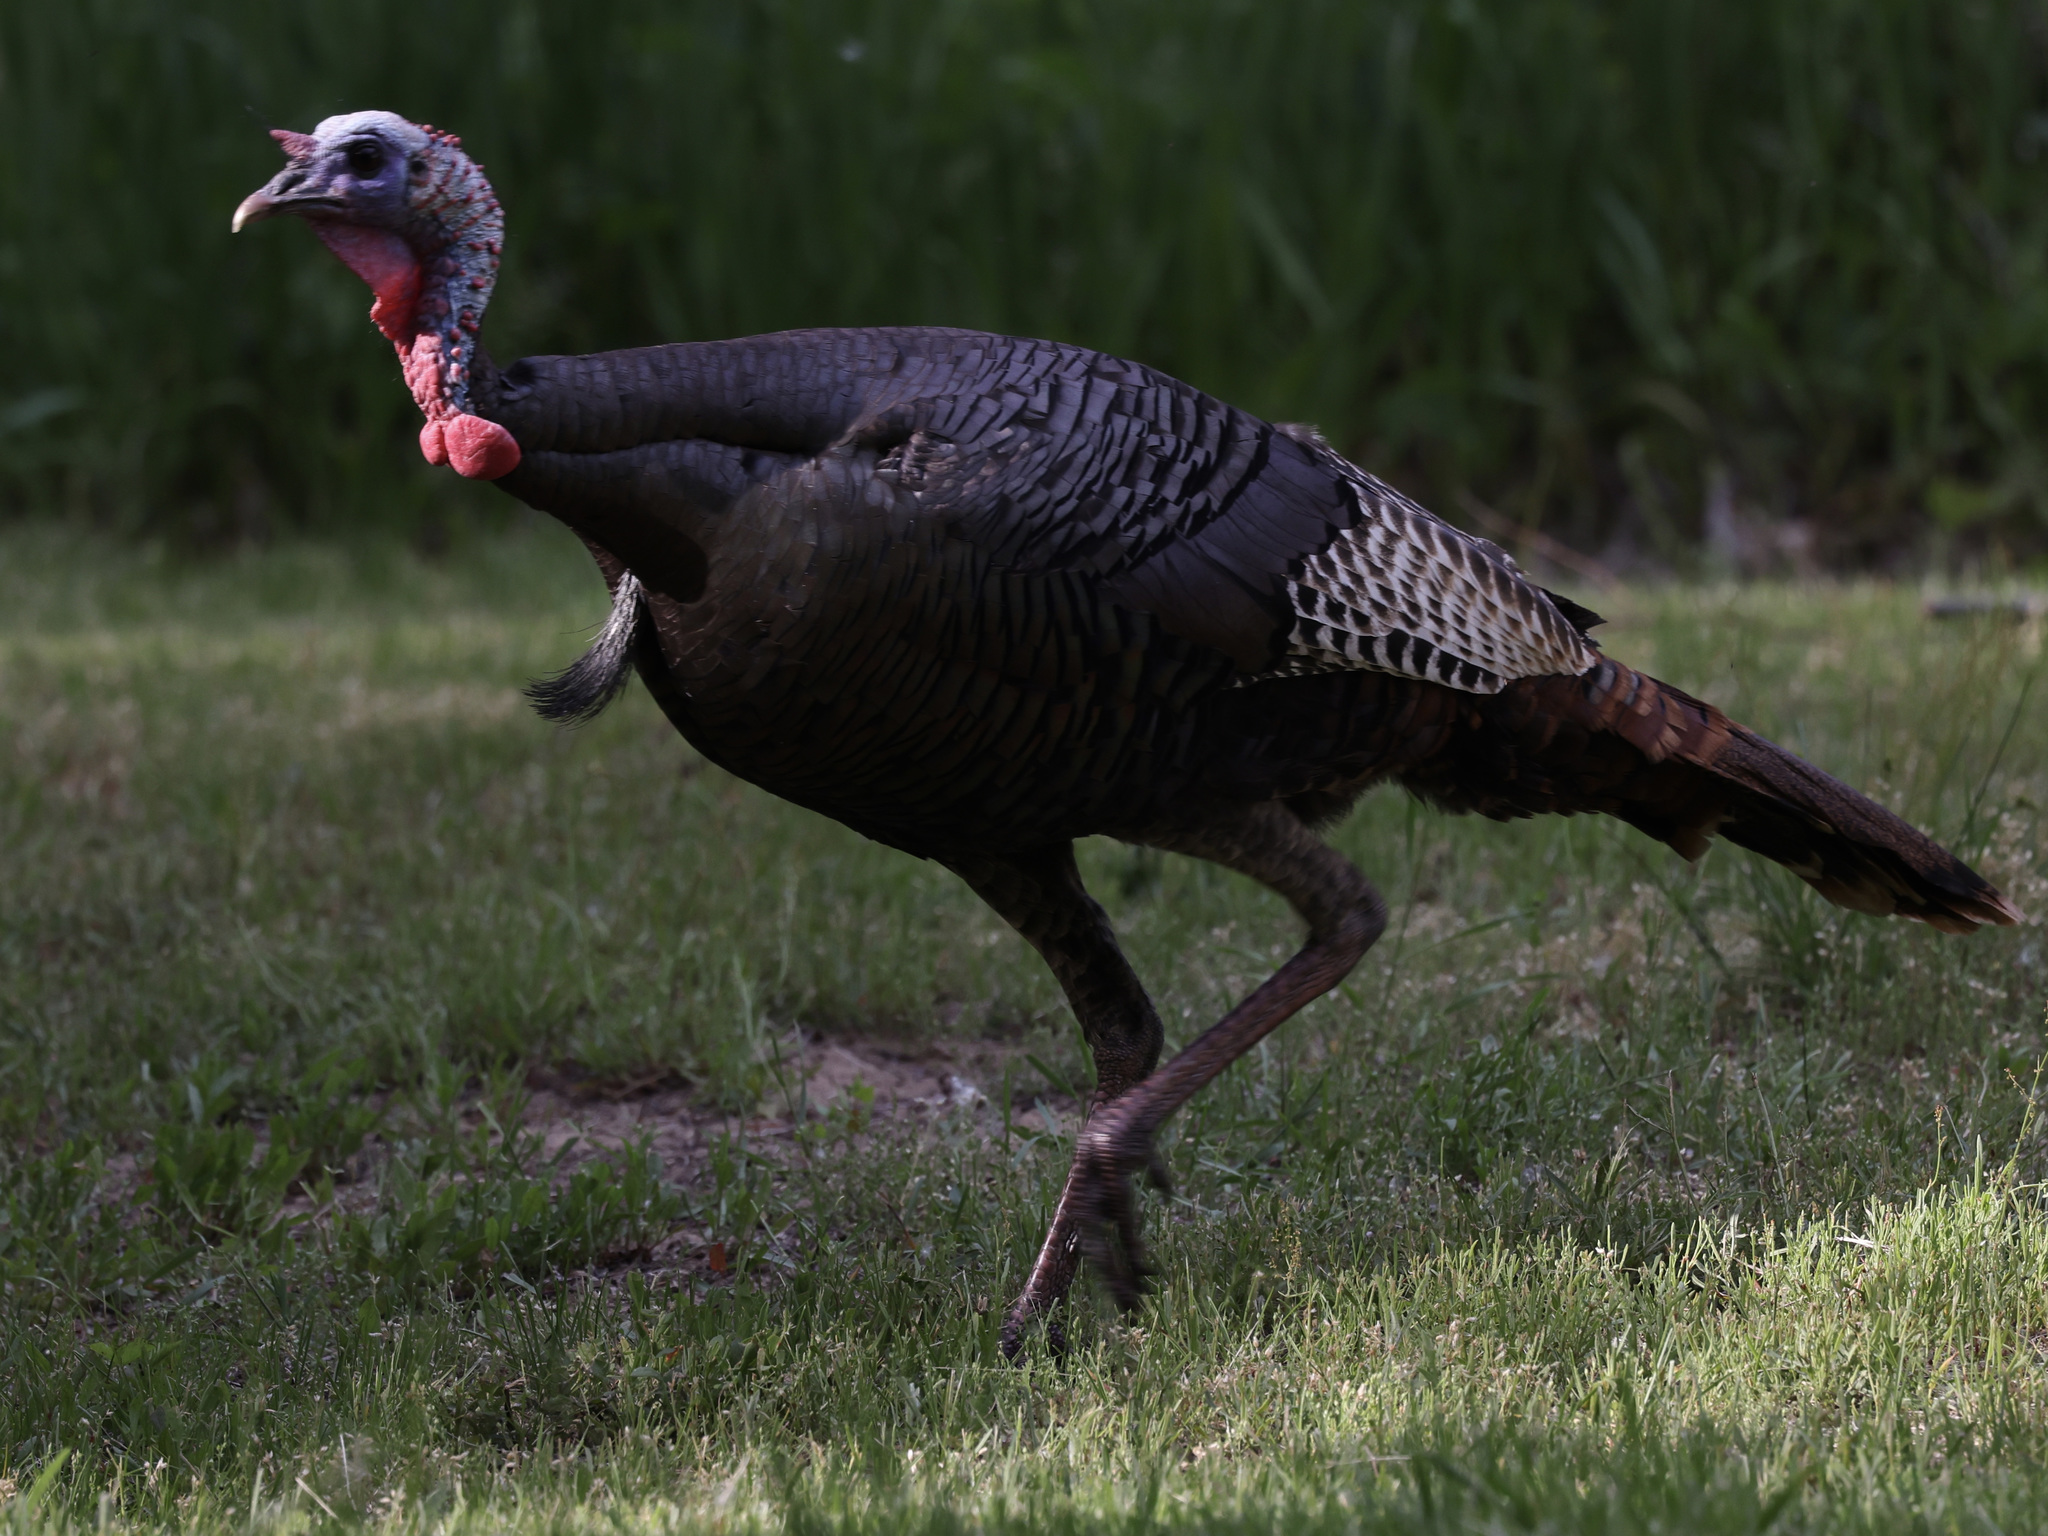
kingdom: Animalia
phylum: Chordata
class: Aves
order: Galliformes
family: Phasianidae
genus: Meleagris
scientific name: Meleagris gallopavo
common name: Wild turkey
